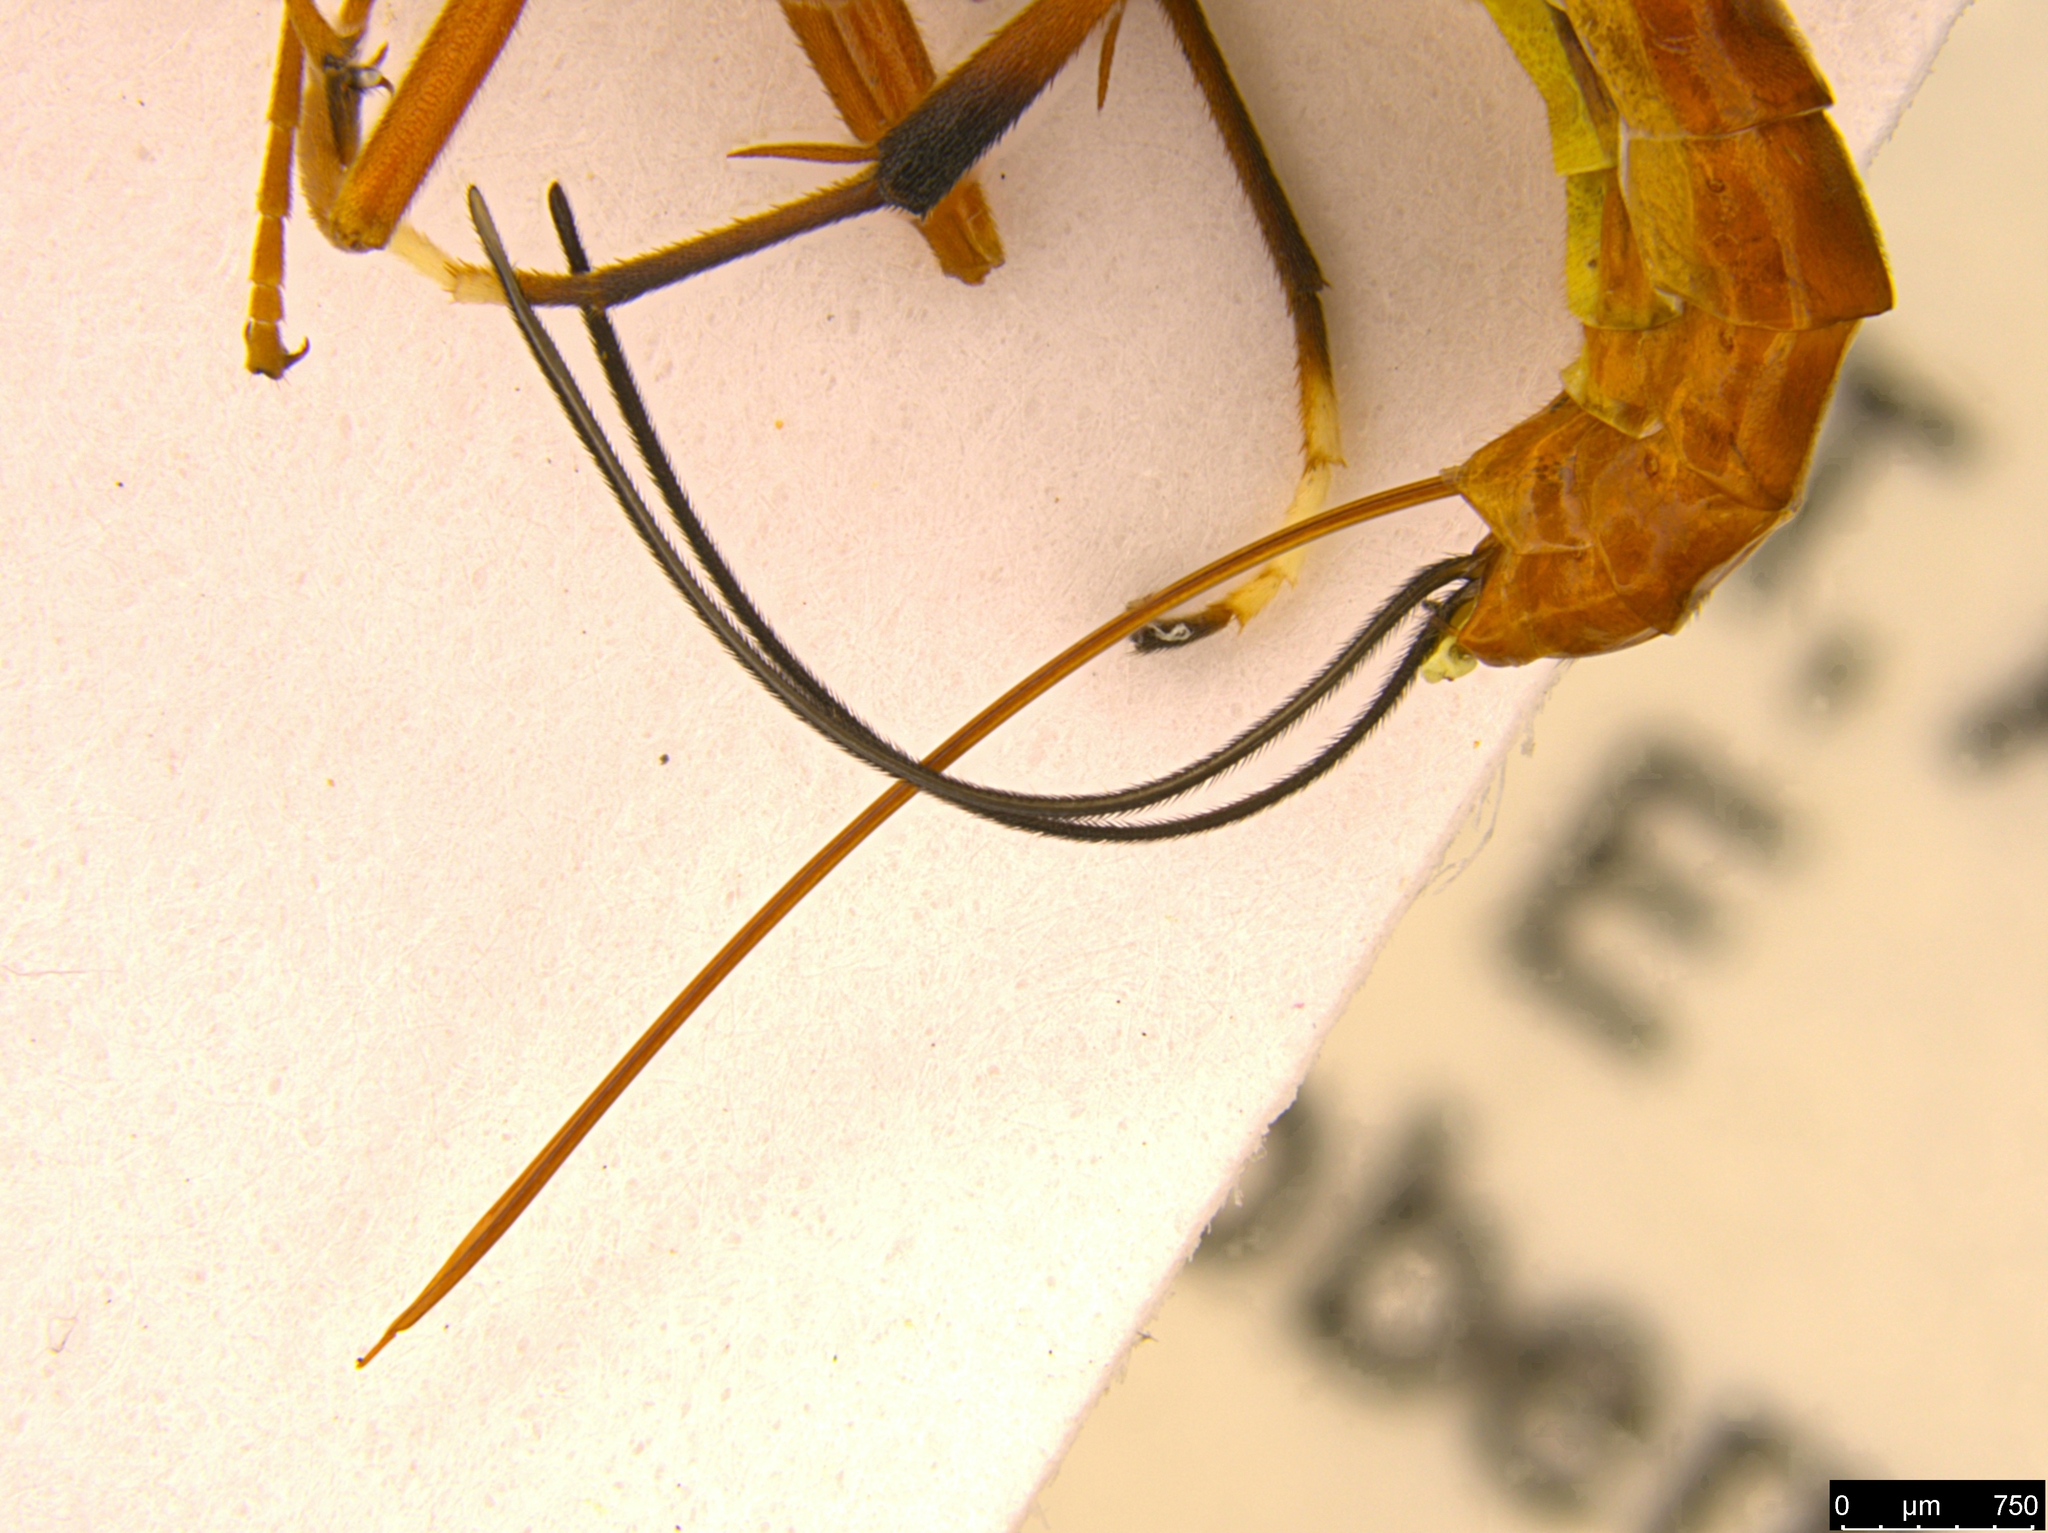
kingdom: Animalia
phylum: Arthropoda
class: Insecta
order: Hymenoptera
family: Ichneumonidae
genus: Australoglypta
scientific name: Australoglypta
